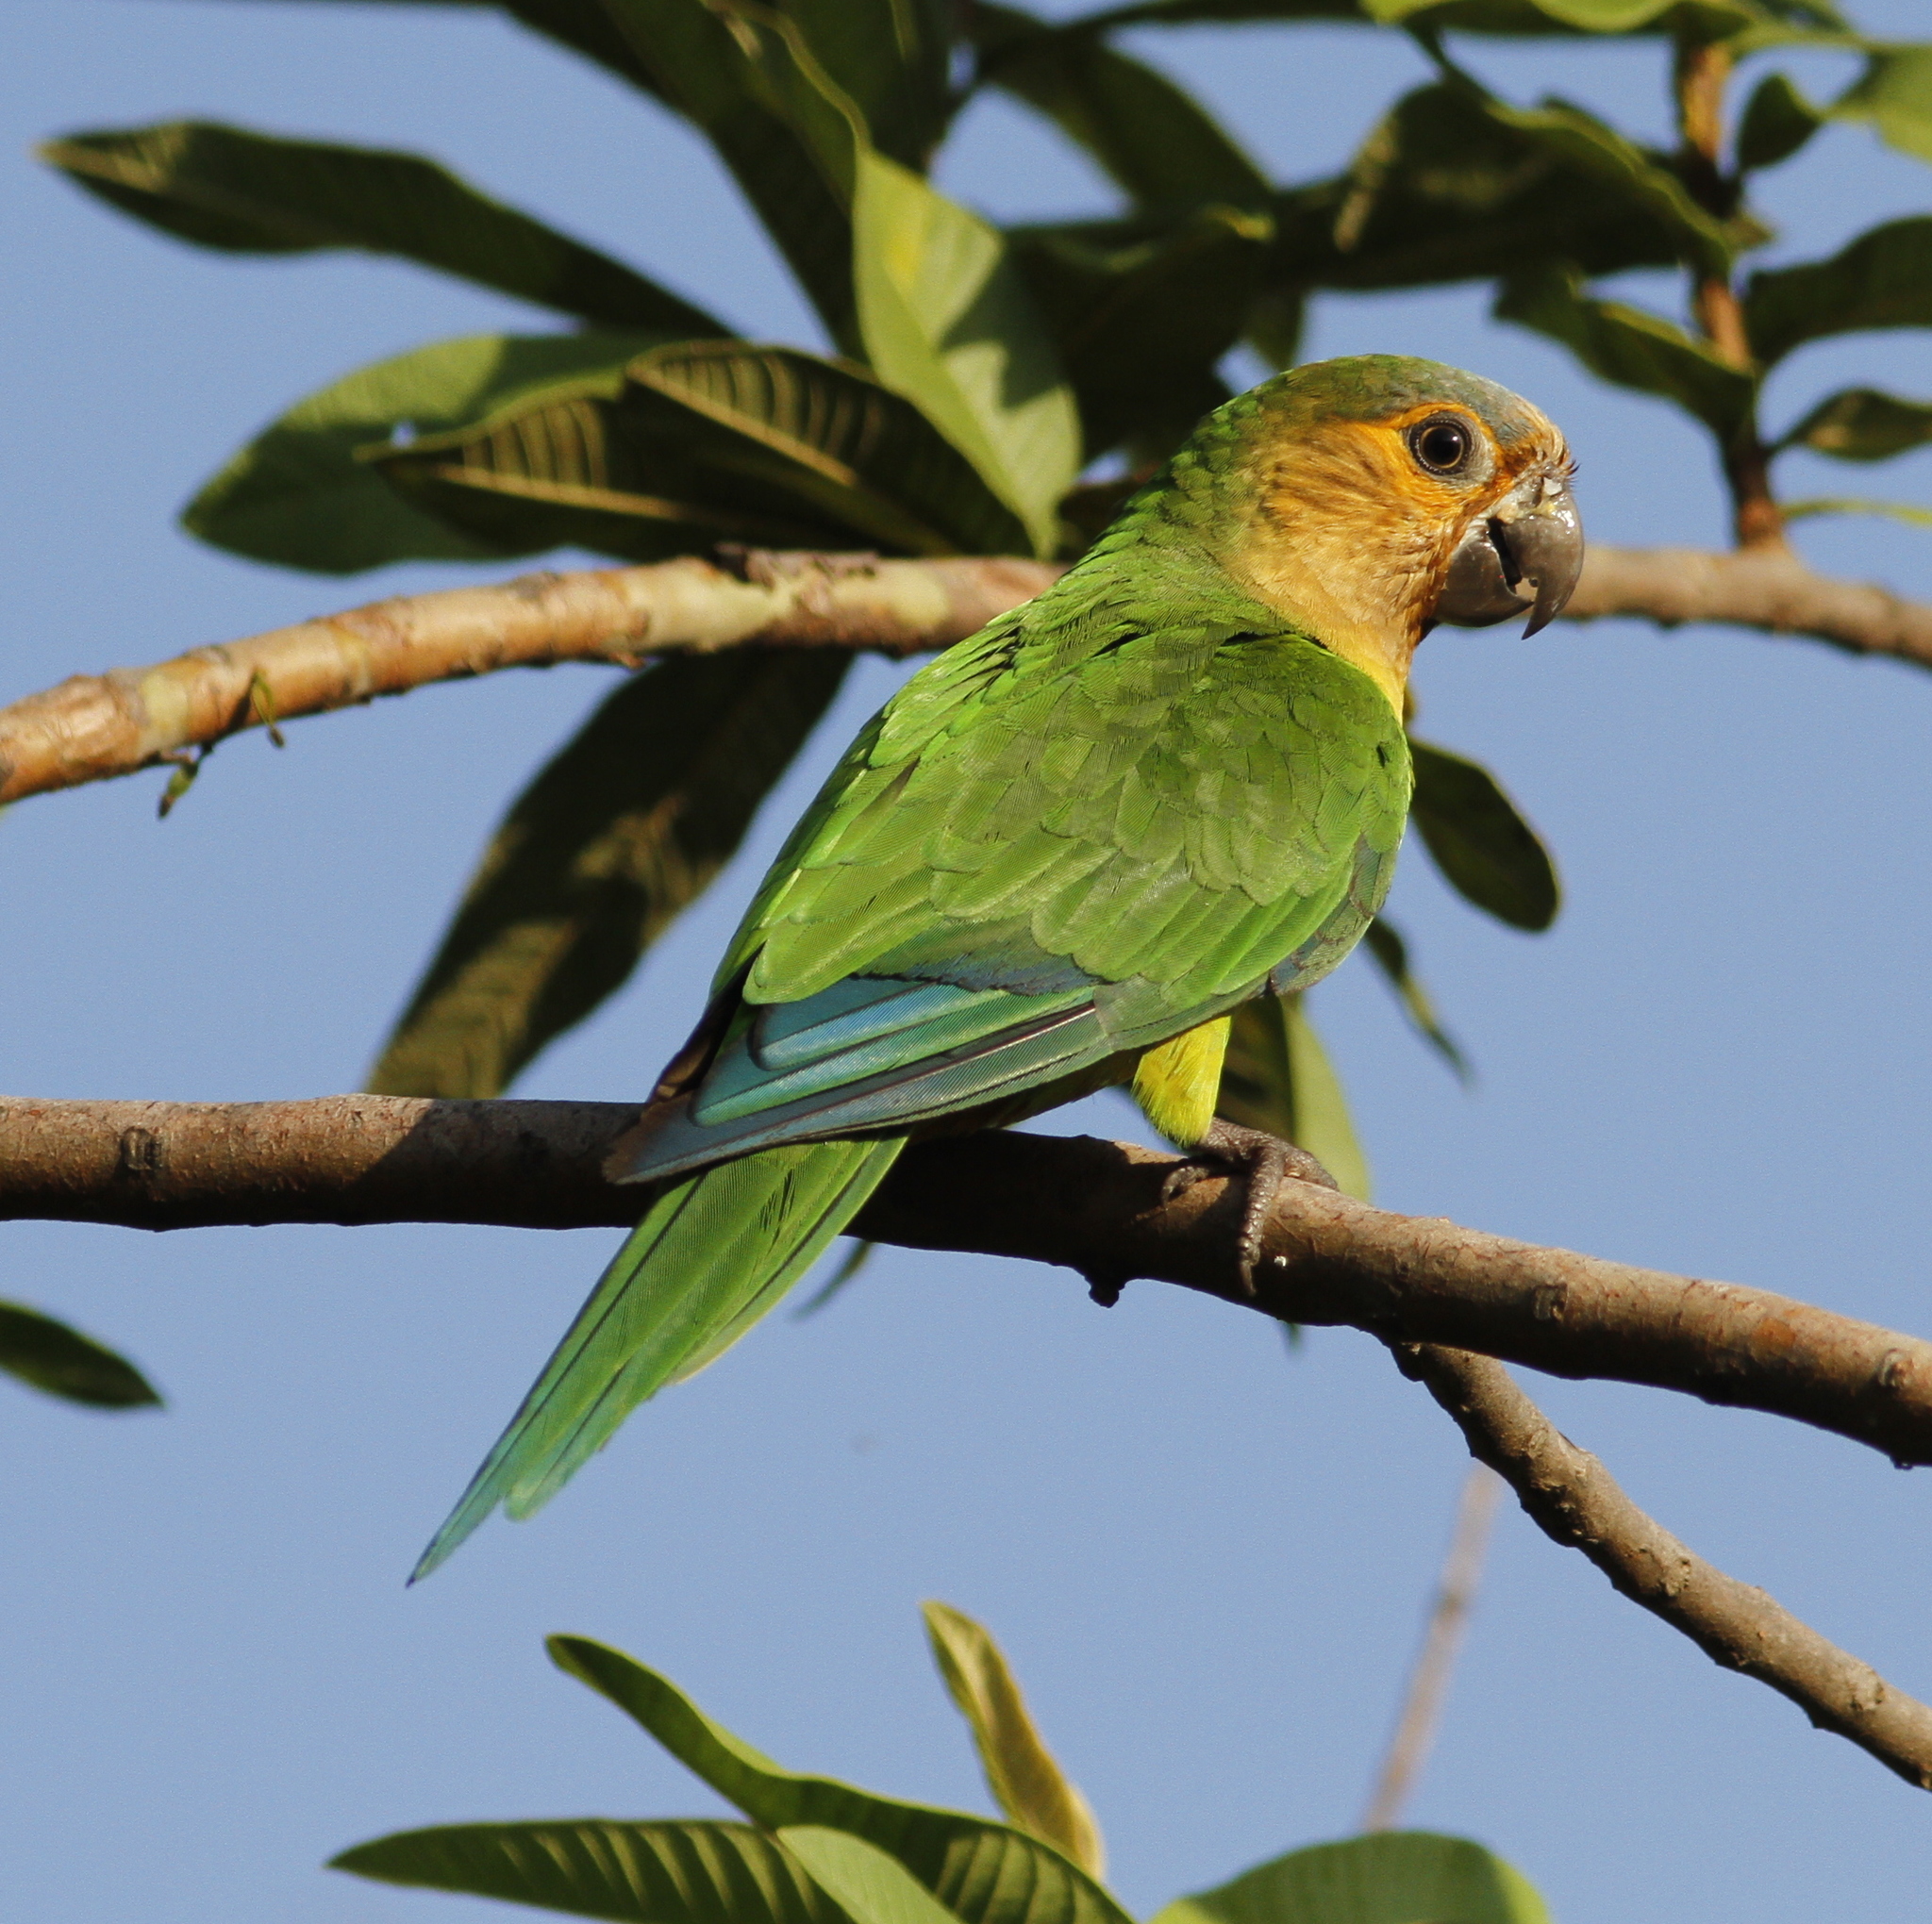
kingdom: Animalia
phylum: Chordata
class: Aves
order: Psittaciformes
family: Psittacidae
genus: Aratinga
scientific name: Aratinga pertinax
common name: Brown-throated parakeet
